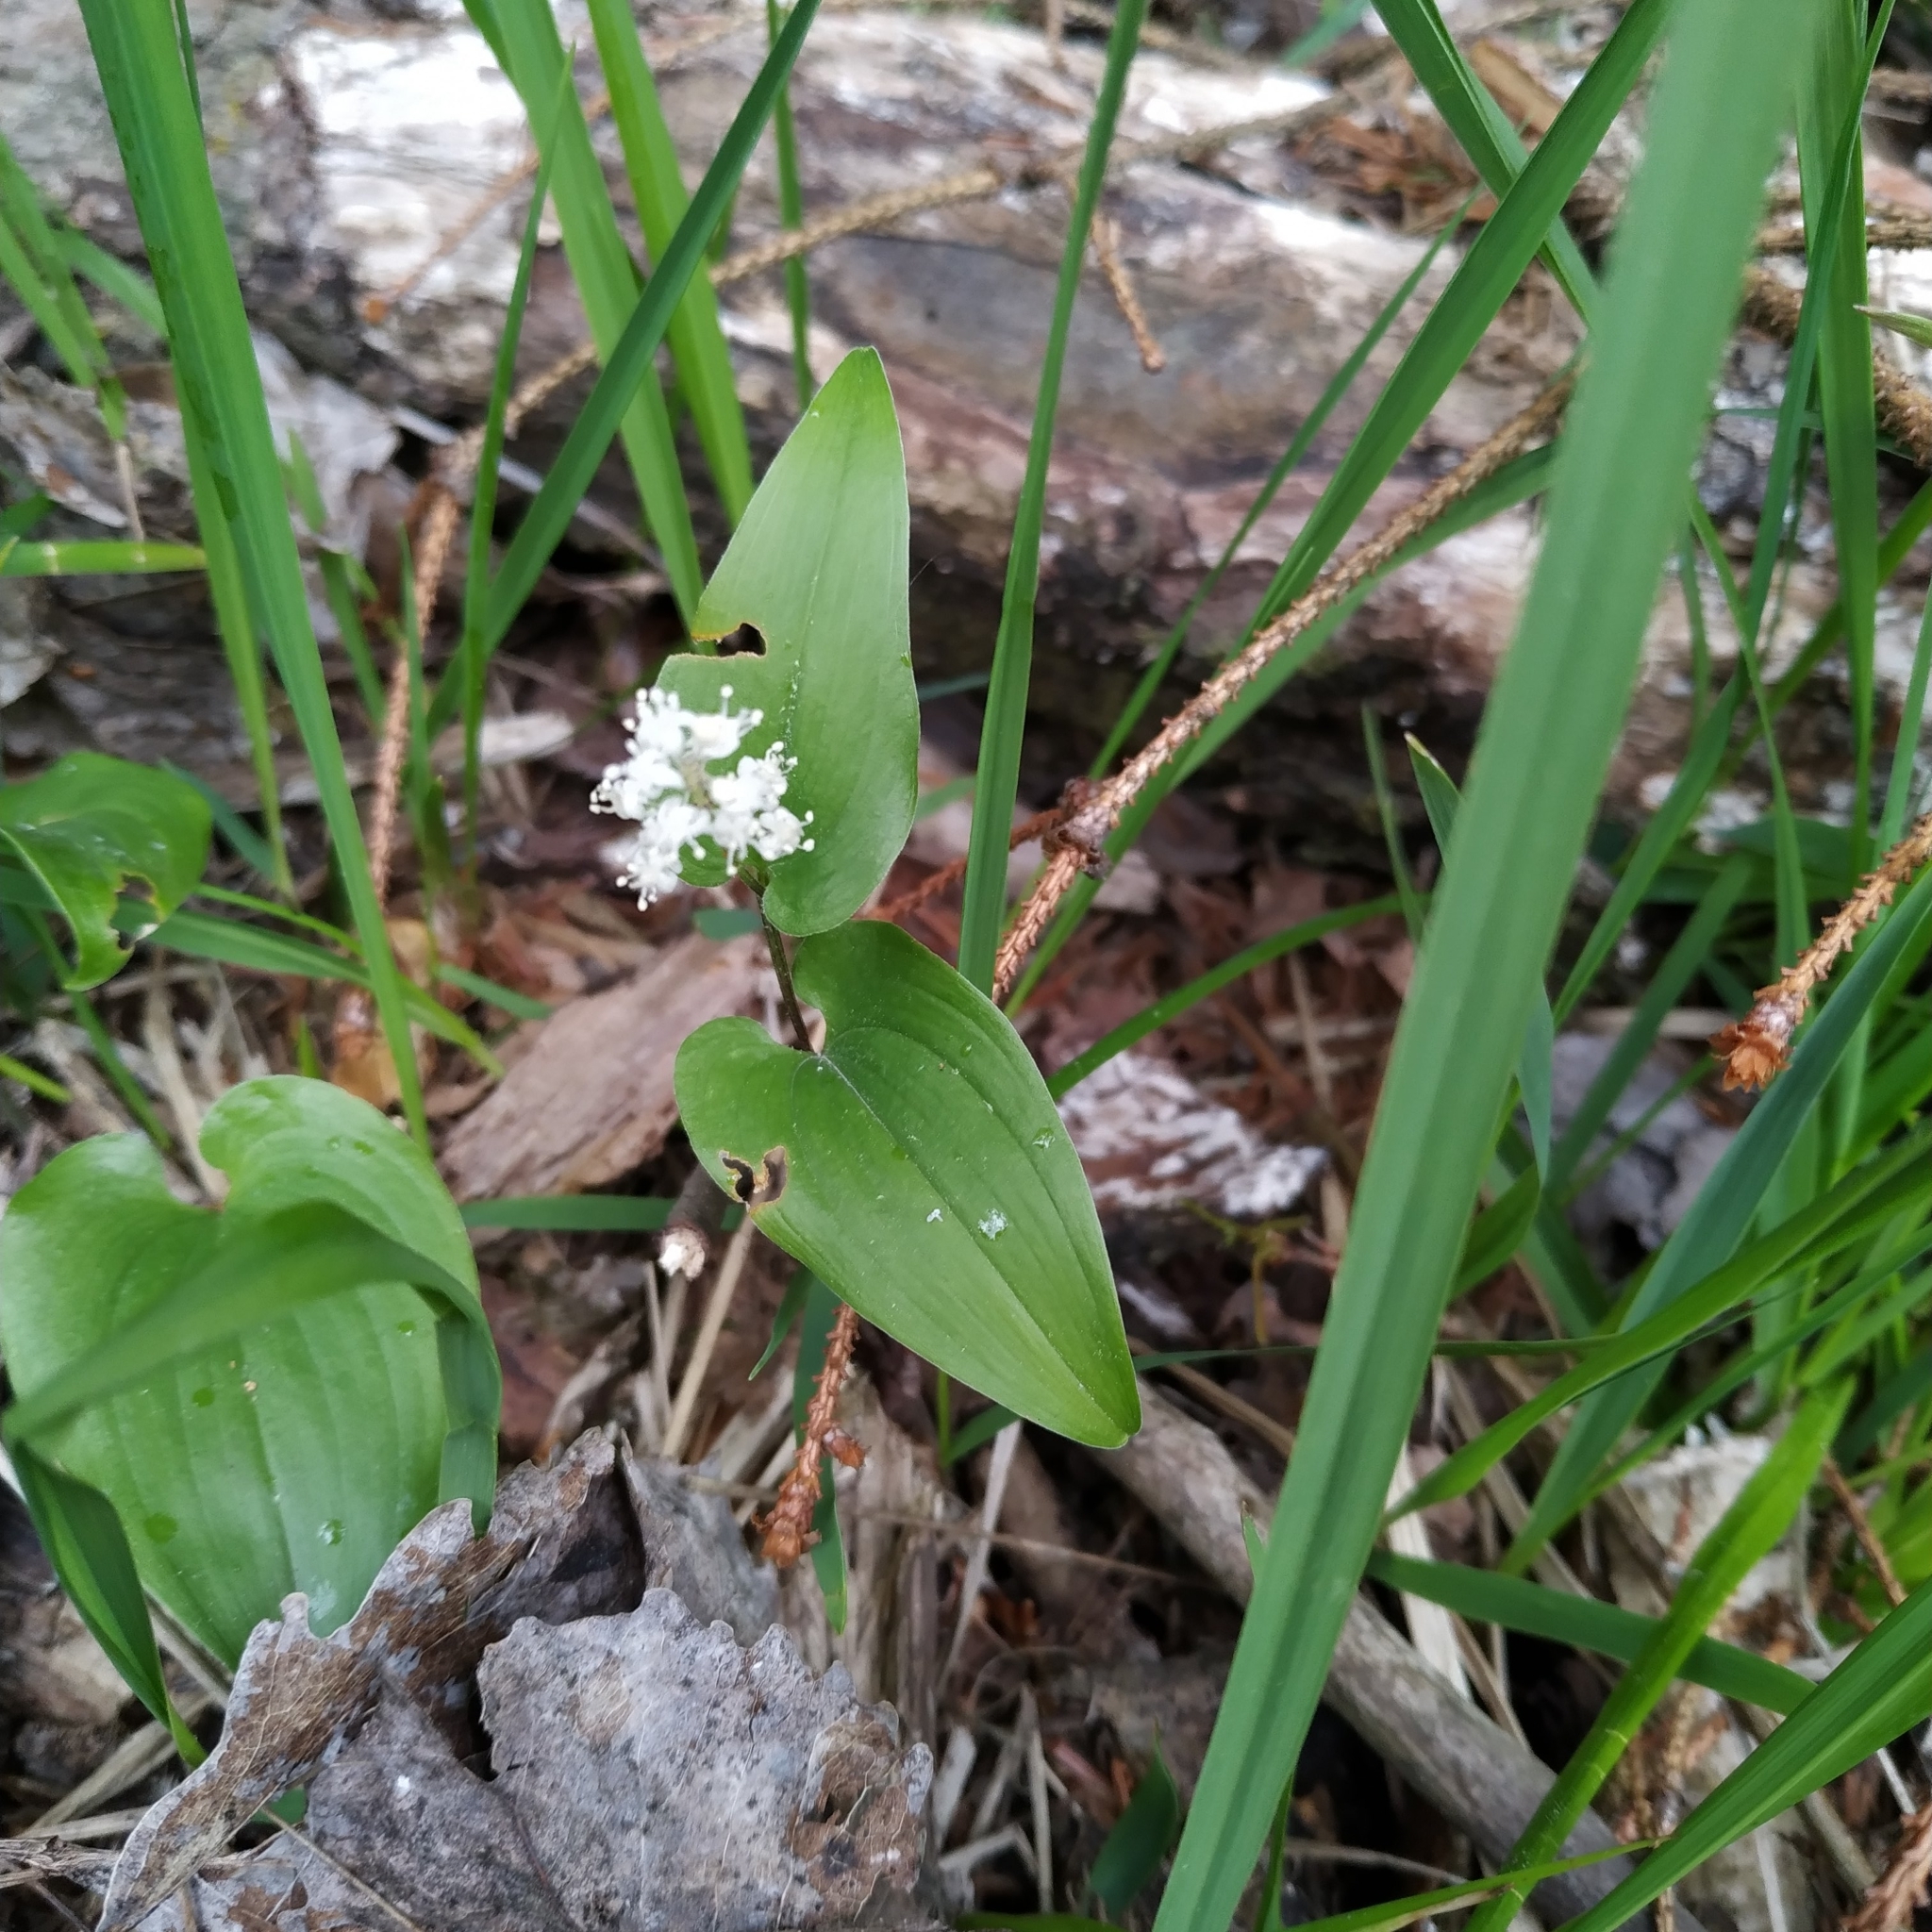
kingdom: Plantae
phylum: Tracheophyta
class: Liliopsida
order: Asparagales
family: Asparagaceae
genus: Maianthemum
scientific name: Maianthemum bifolium
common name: May lily
